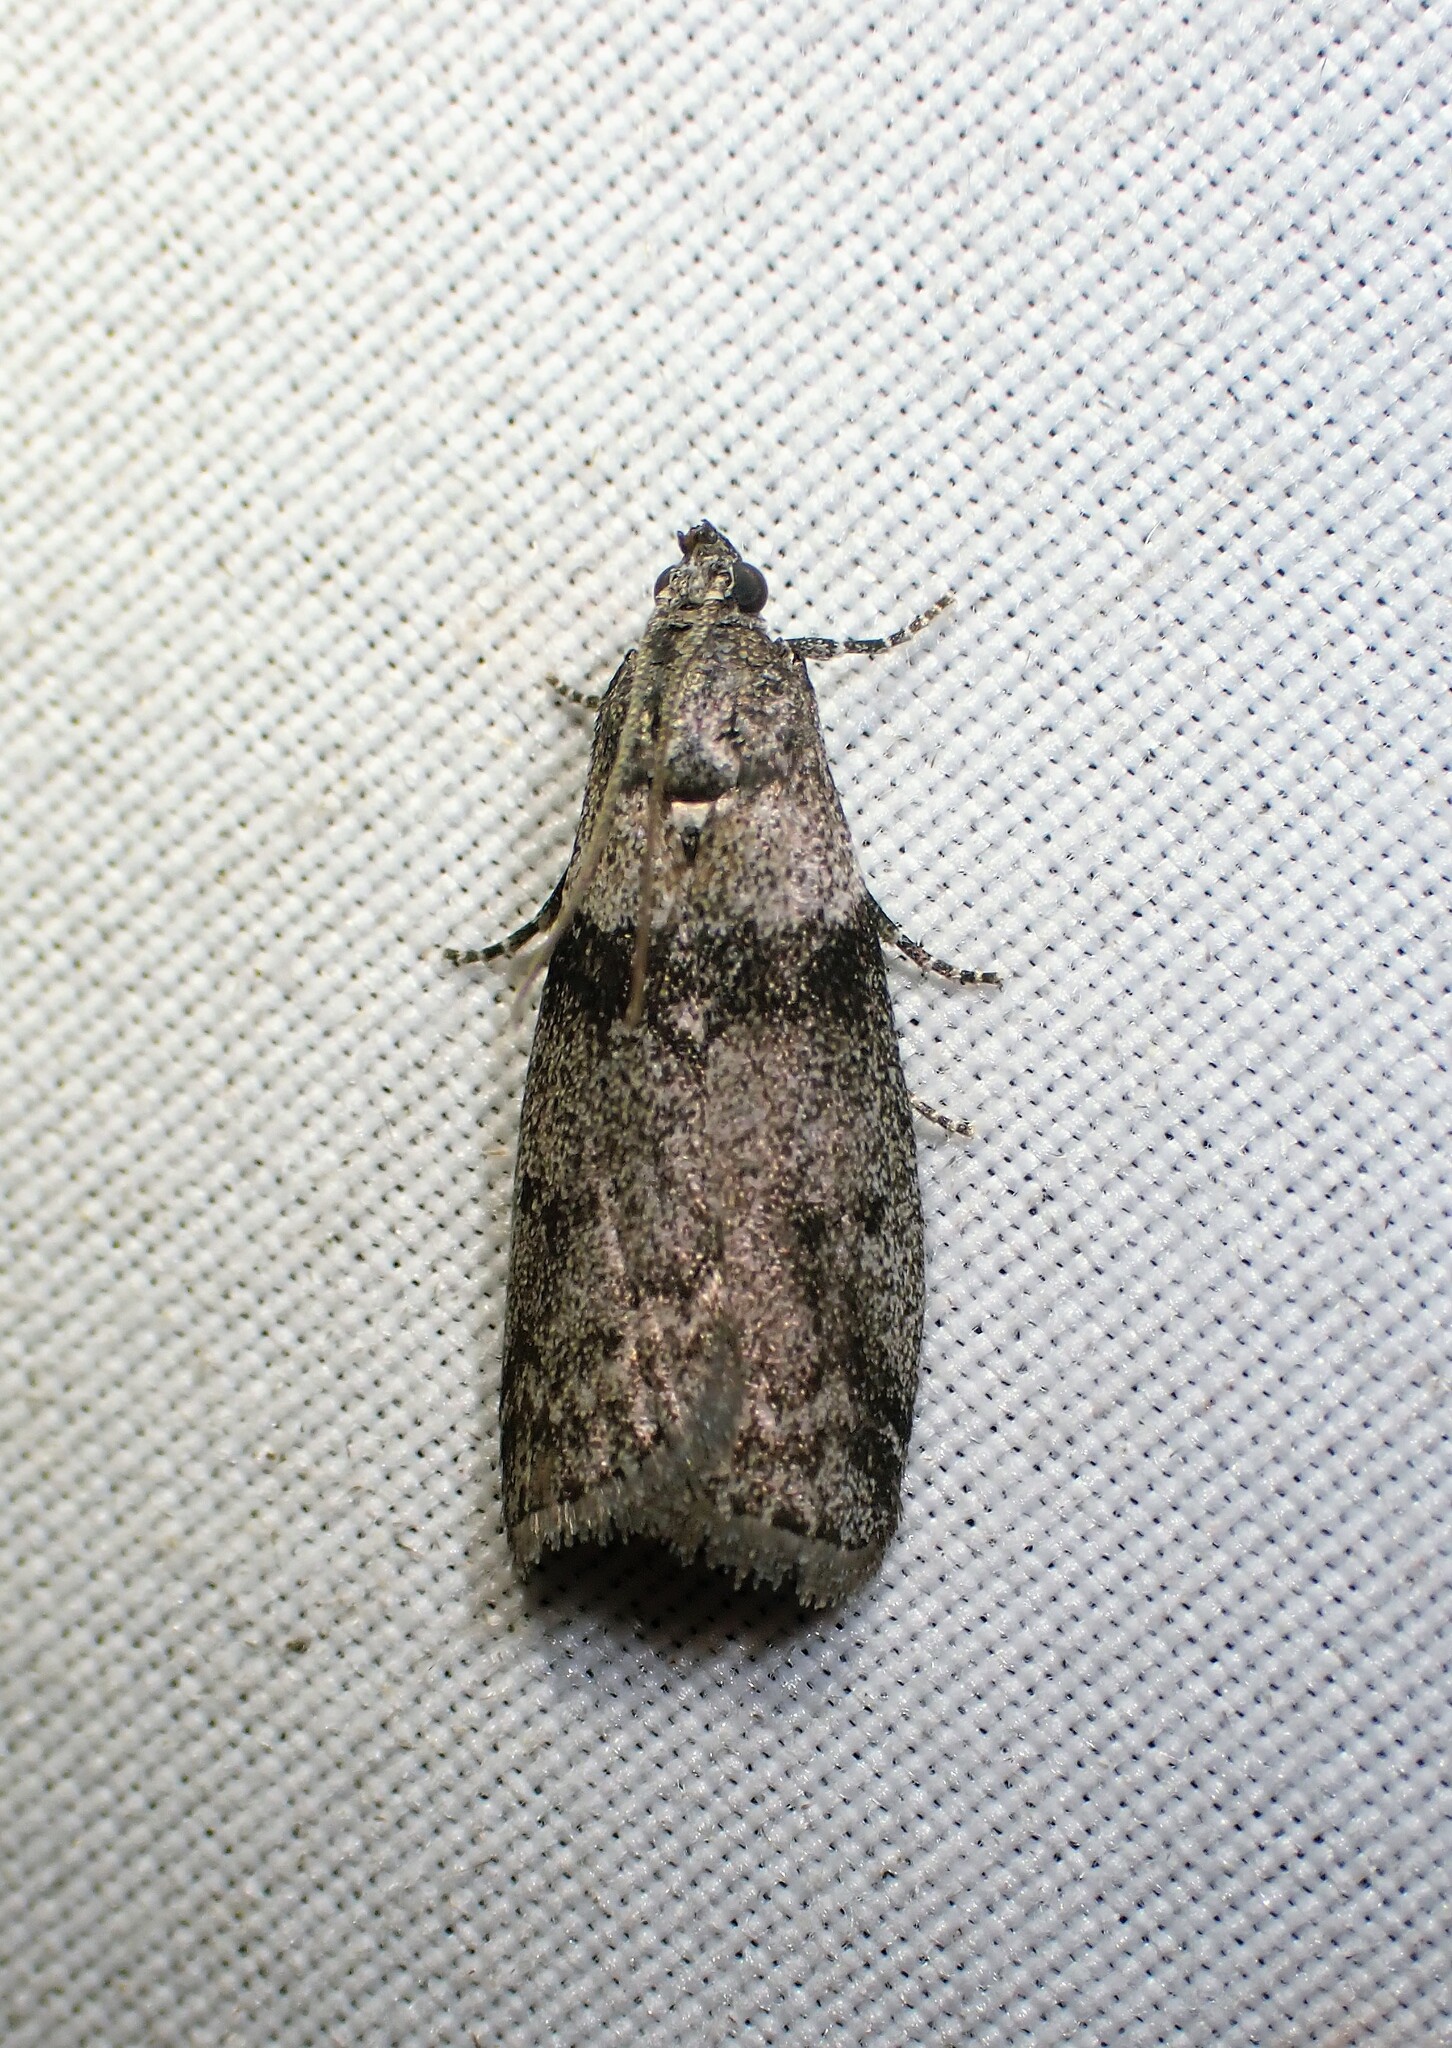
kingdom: Animalia
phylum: Arthropoda
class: Insecta
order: Lepidoptera
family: Pyralidae
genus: Meroptera
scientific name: Meroptera pravella
